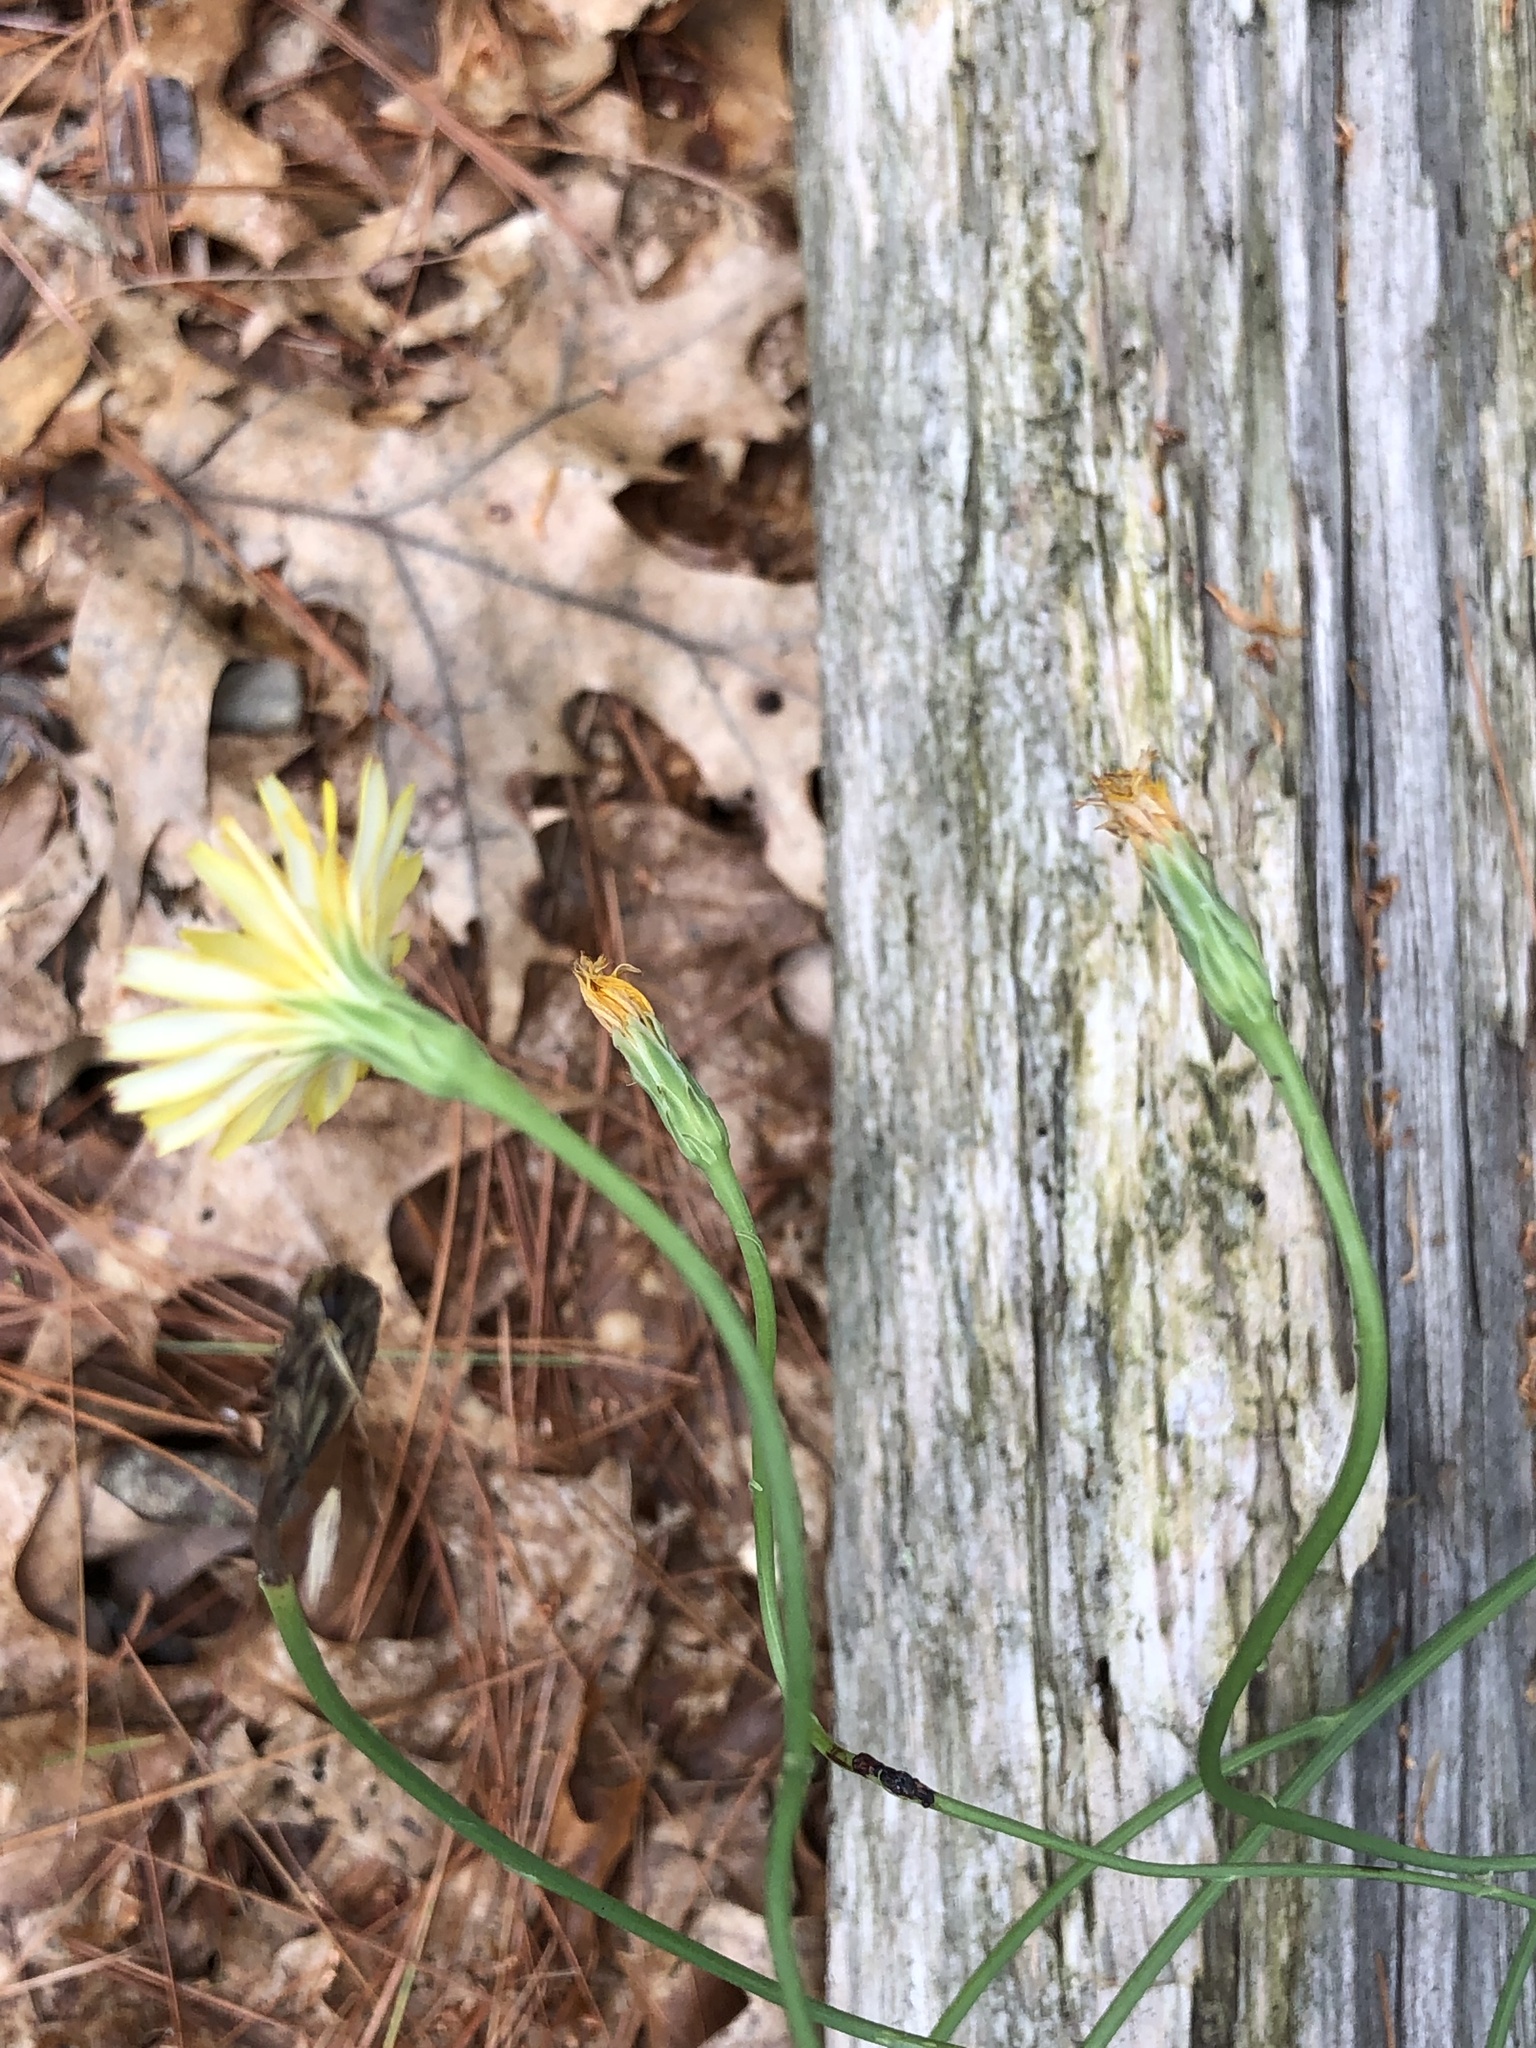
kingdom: Plantae
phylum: Tracheophyta
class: Magnoliopsida
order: Asterales
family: Asteraceae
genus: Hypochaeris
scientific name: Hypochaeris radicata
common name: Flatweed
